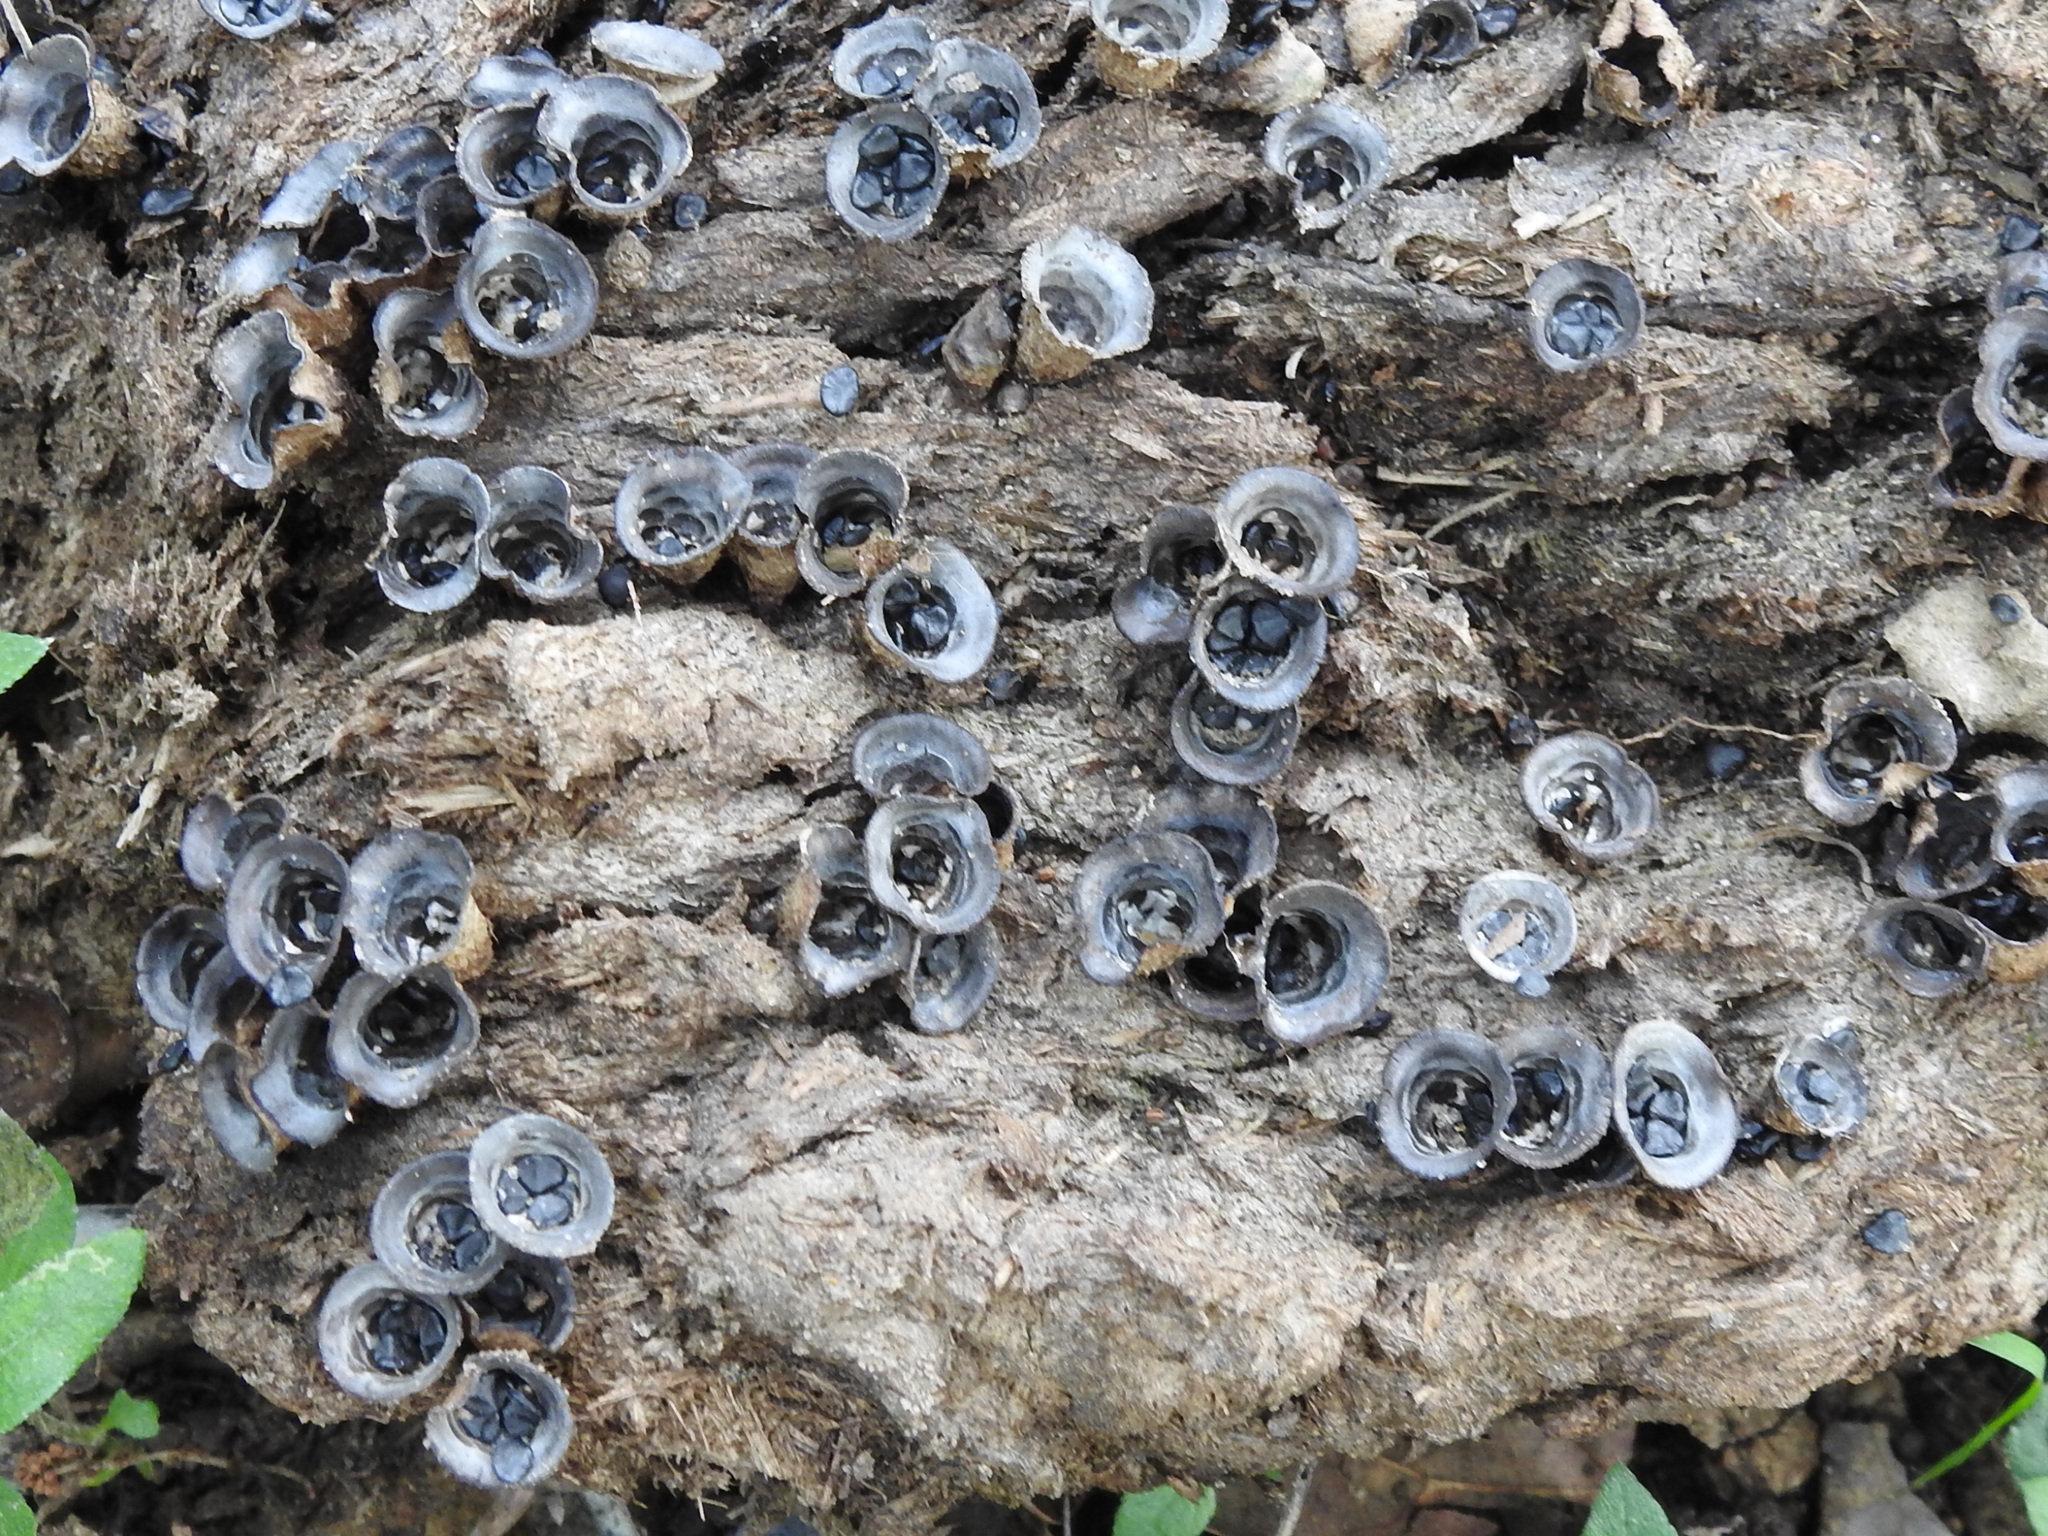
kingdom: Fungi
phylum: Basidiomycota
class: Agaricomycetes
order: Agaricales
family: Agaricaceae
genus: Cyathus
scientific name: Cyathus stercoreus
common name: Dung bird's nest
